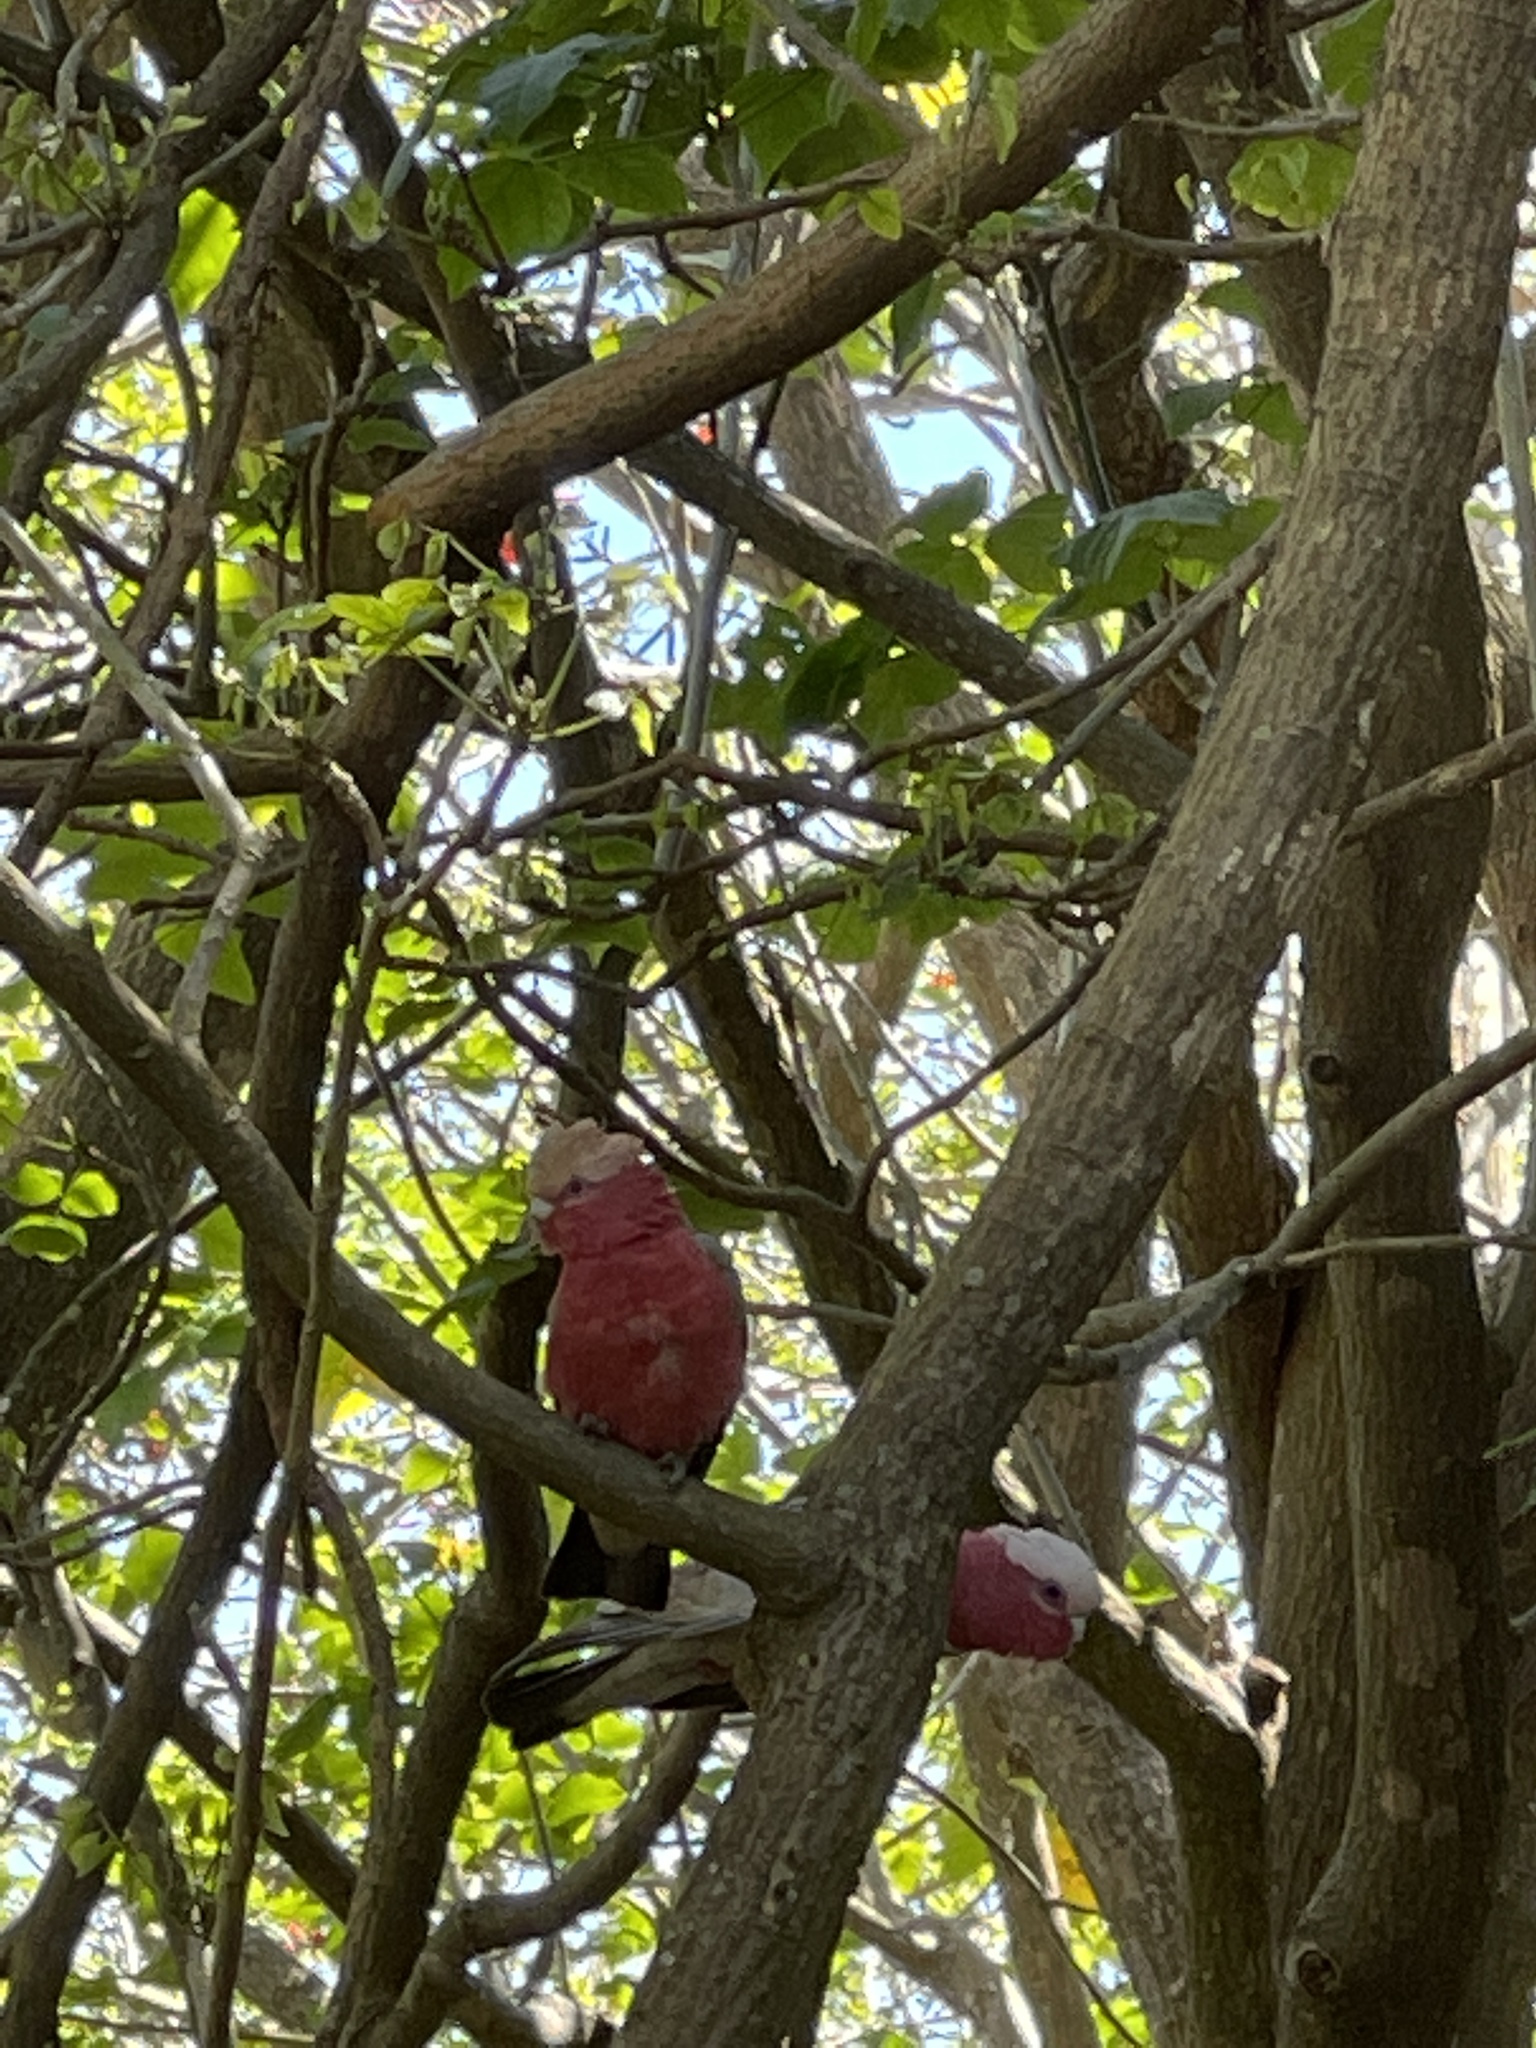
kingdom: Animalia
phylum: Chordata
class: Aves
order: Psittaciformes
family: Psittacidae
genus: Eolophus
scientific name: Eolophus roseicapilla
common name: Galah
